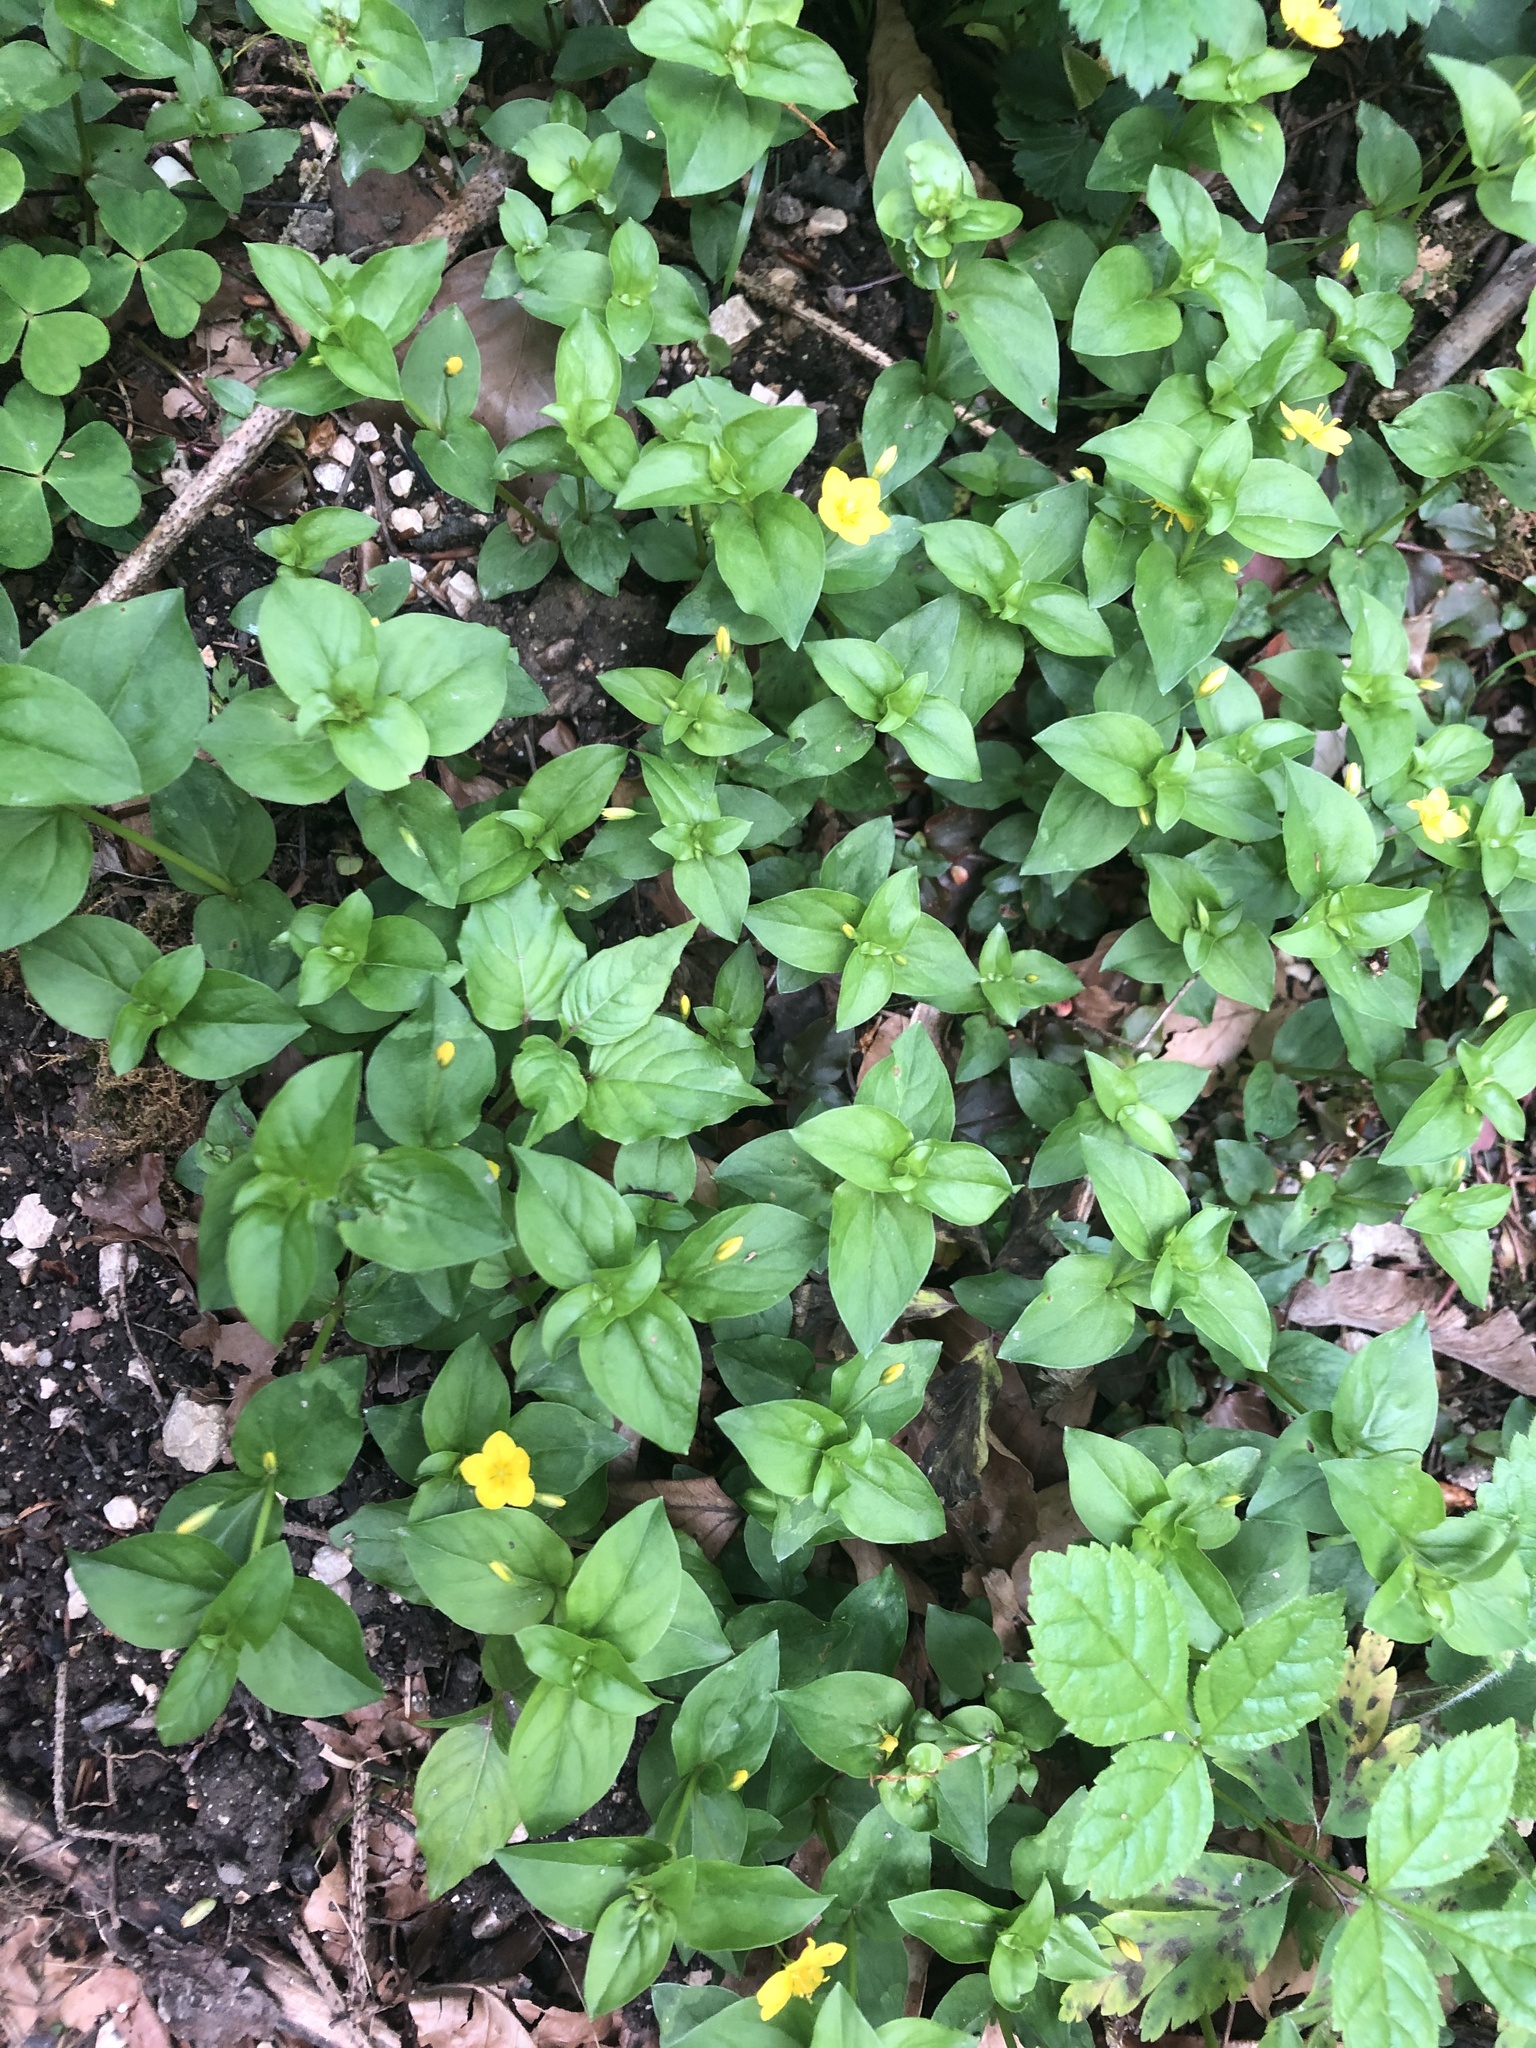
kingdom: Plantae
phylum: Tracheophyta
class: Magnoliopsida
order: Ericales
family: Primulaceae
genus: Lysimachia
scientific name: Lysimachia nemorum
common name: Yellow pimpernel
